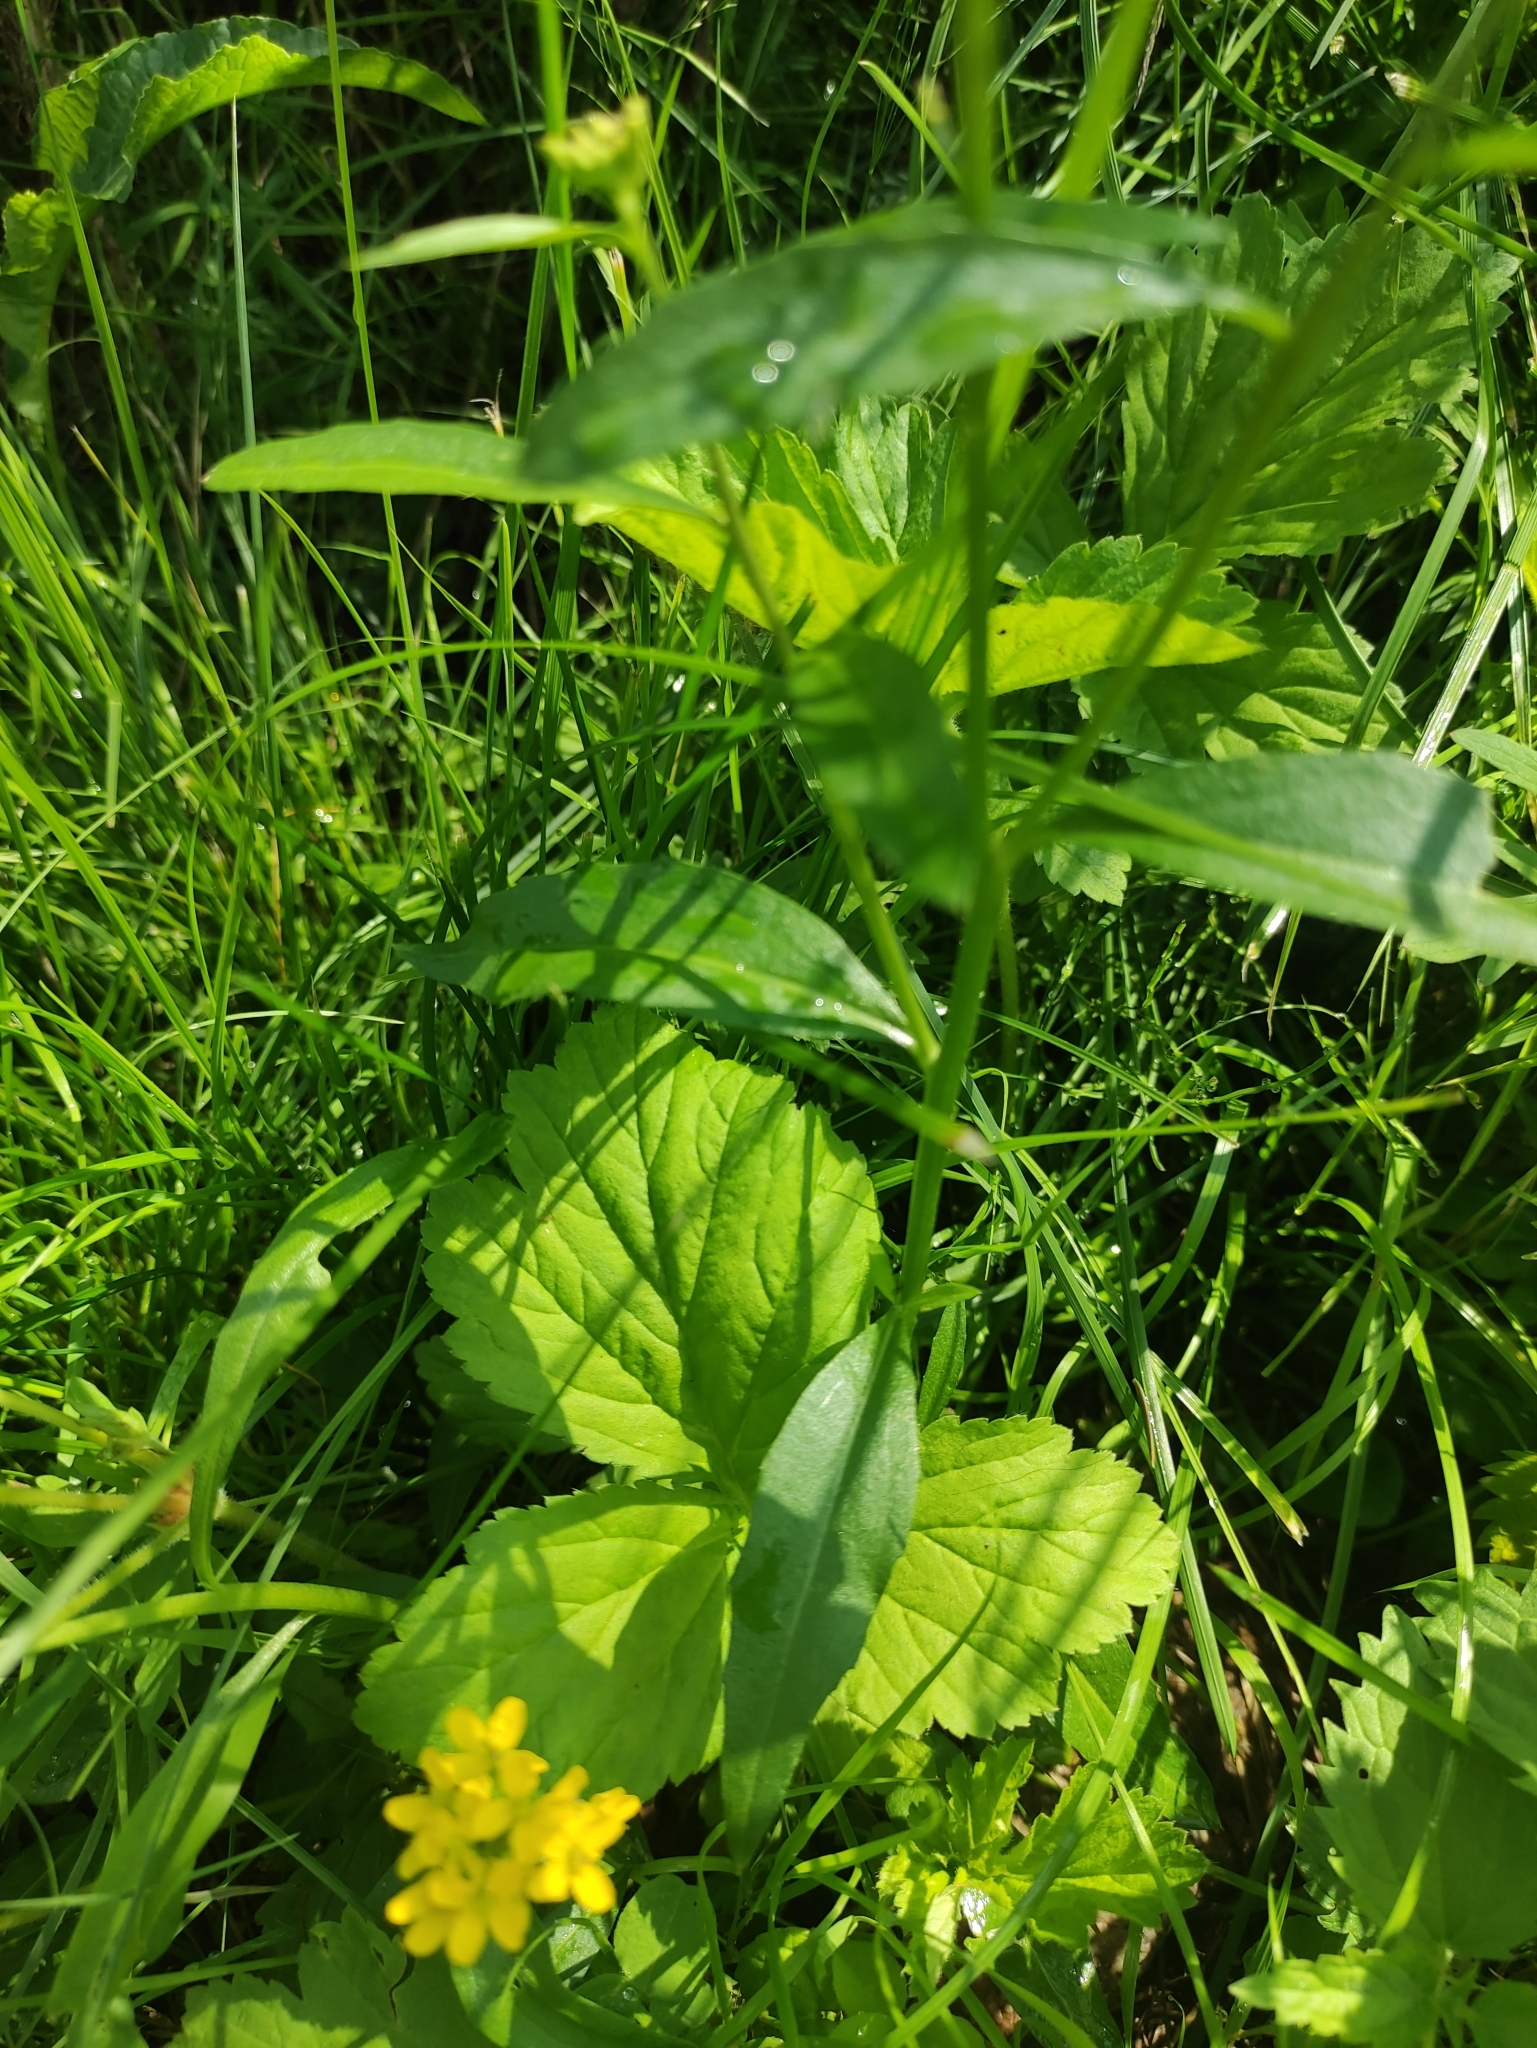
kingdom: Plantae
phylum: Tracheophyta
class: Magnoliopsida
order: Brassicales
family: Brassicaceae
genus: Erysimum
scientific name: Erysimum hieraciifolium
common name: European wallflower
